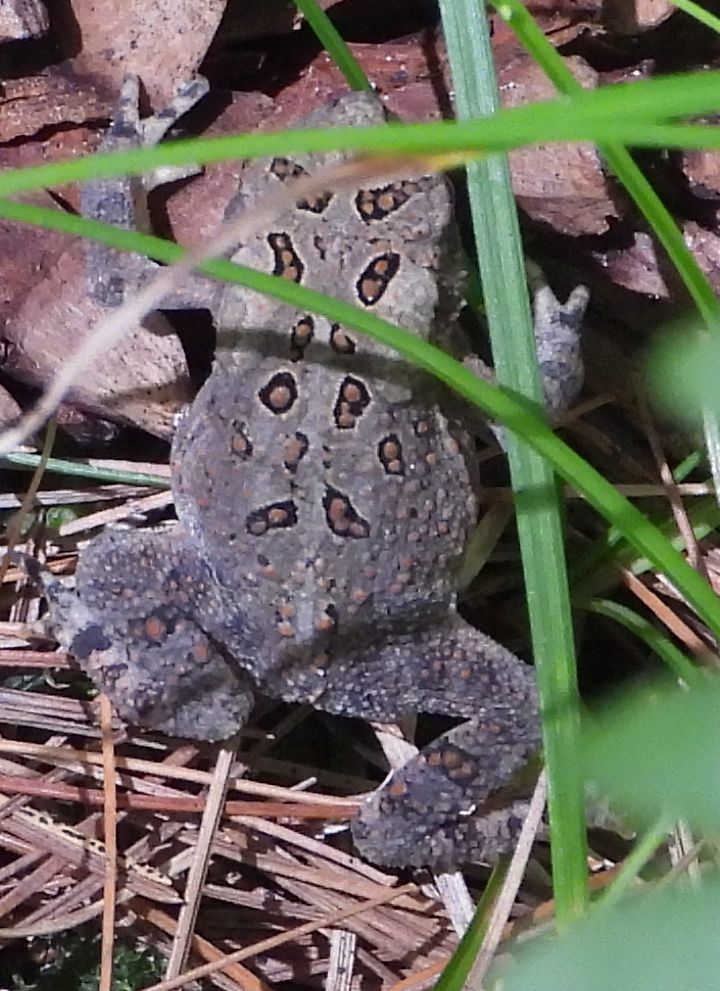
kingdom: Animalia
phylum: Chordata
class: Amphibia
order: Anura
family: Bufonidae
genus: Anaxyrus
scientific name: Anaxyrus americanus
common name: American toad
